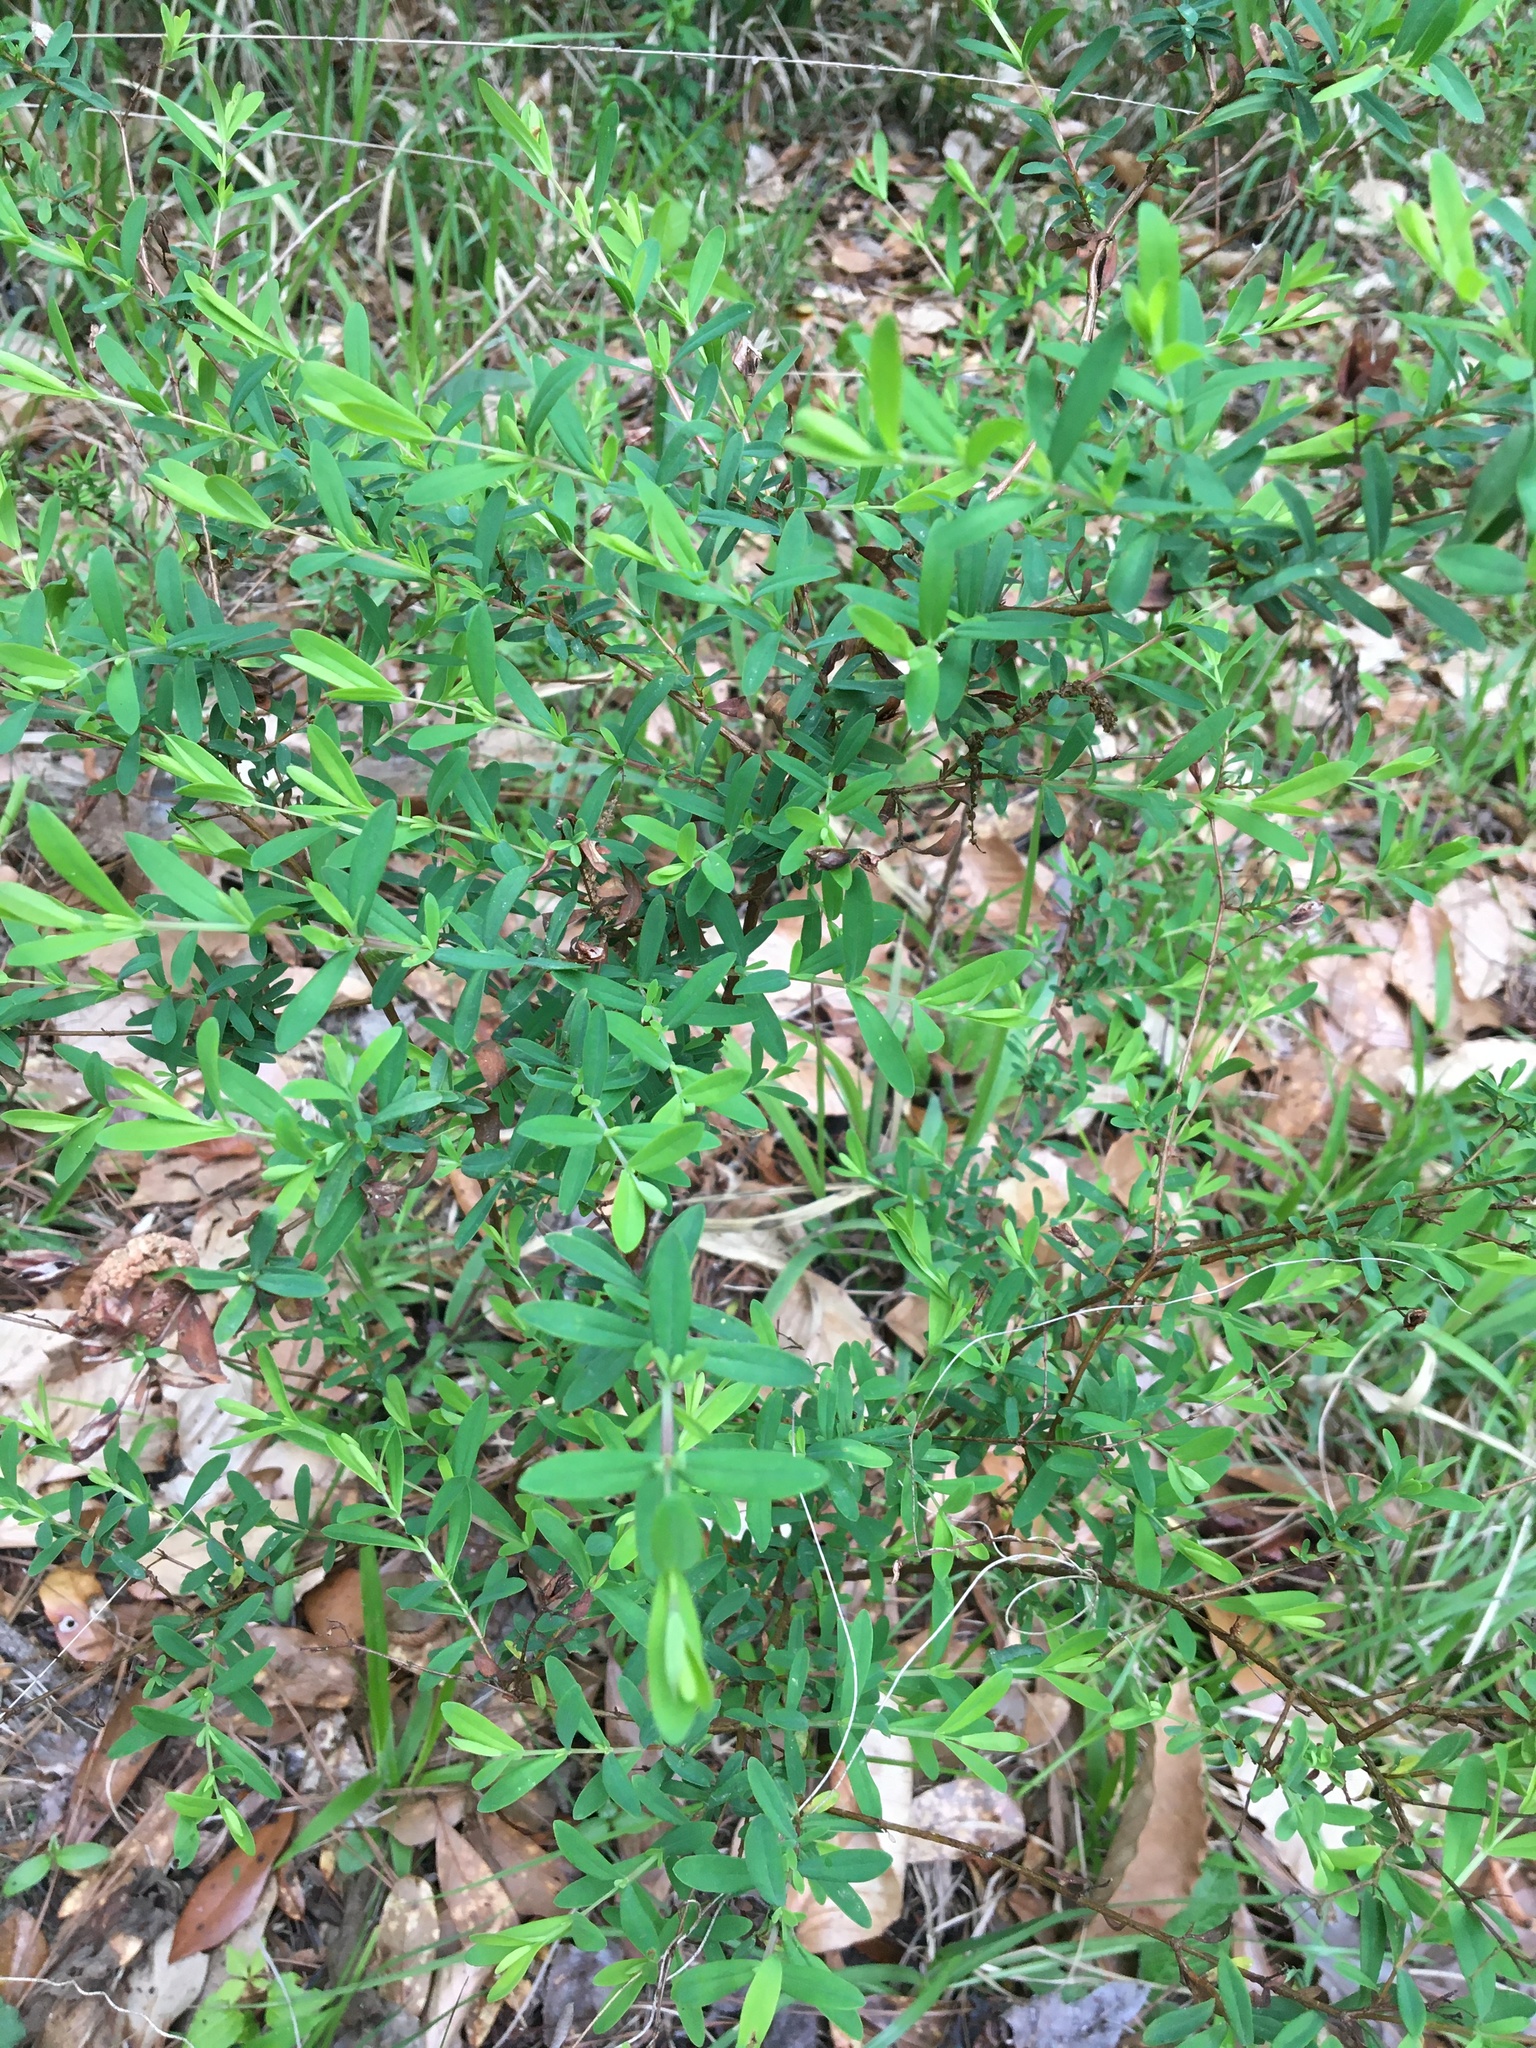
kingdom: Plantae
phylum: Tracheophyta
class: Magnoliopsida
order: Malpighiales
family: Hypericaceae
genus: Hypericum
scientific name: Hypericum hypericoides
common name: St. andrew's cross
